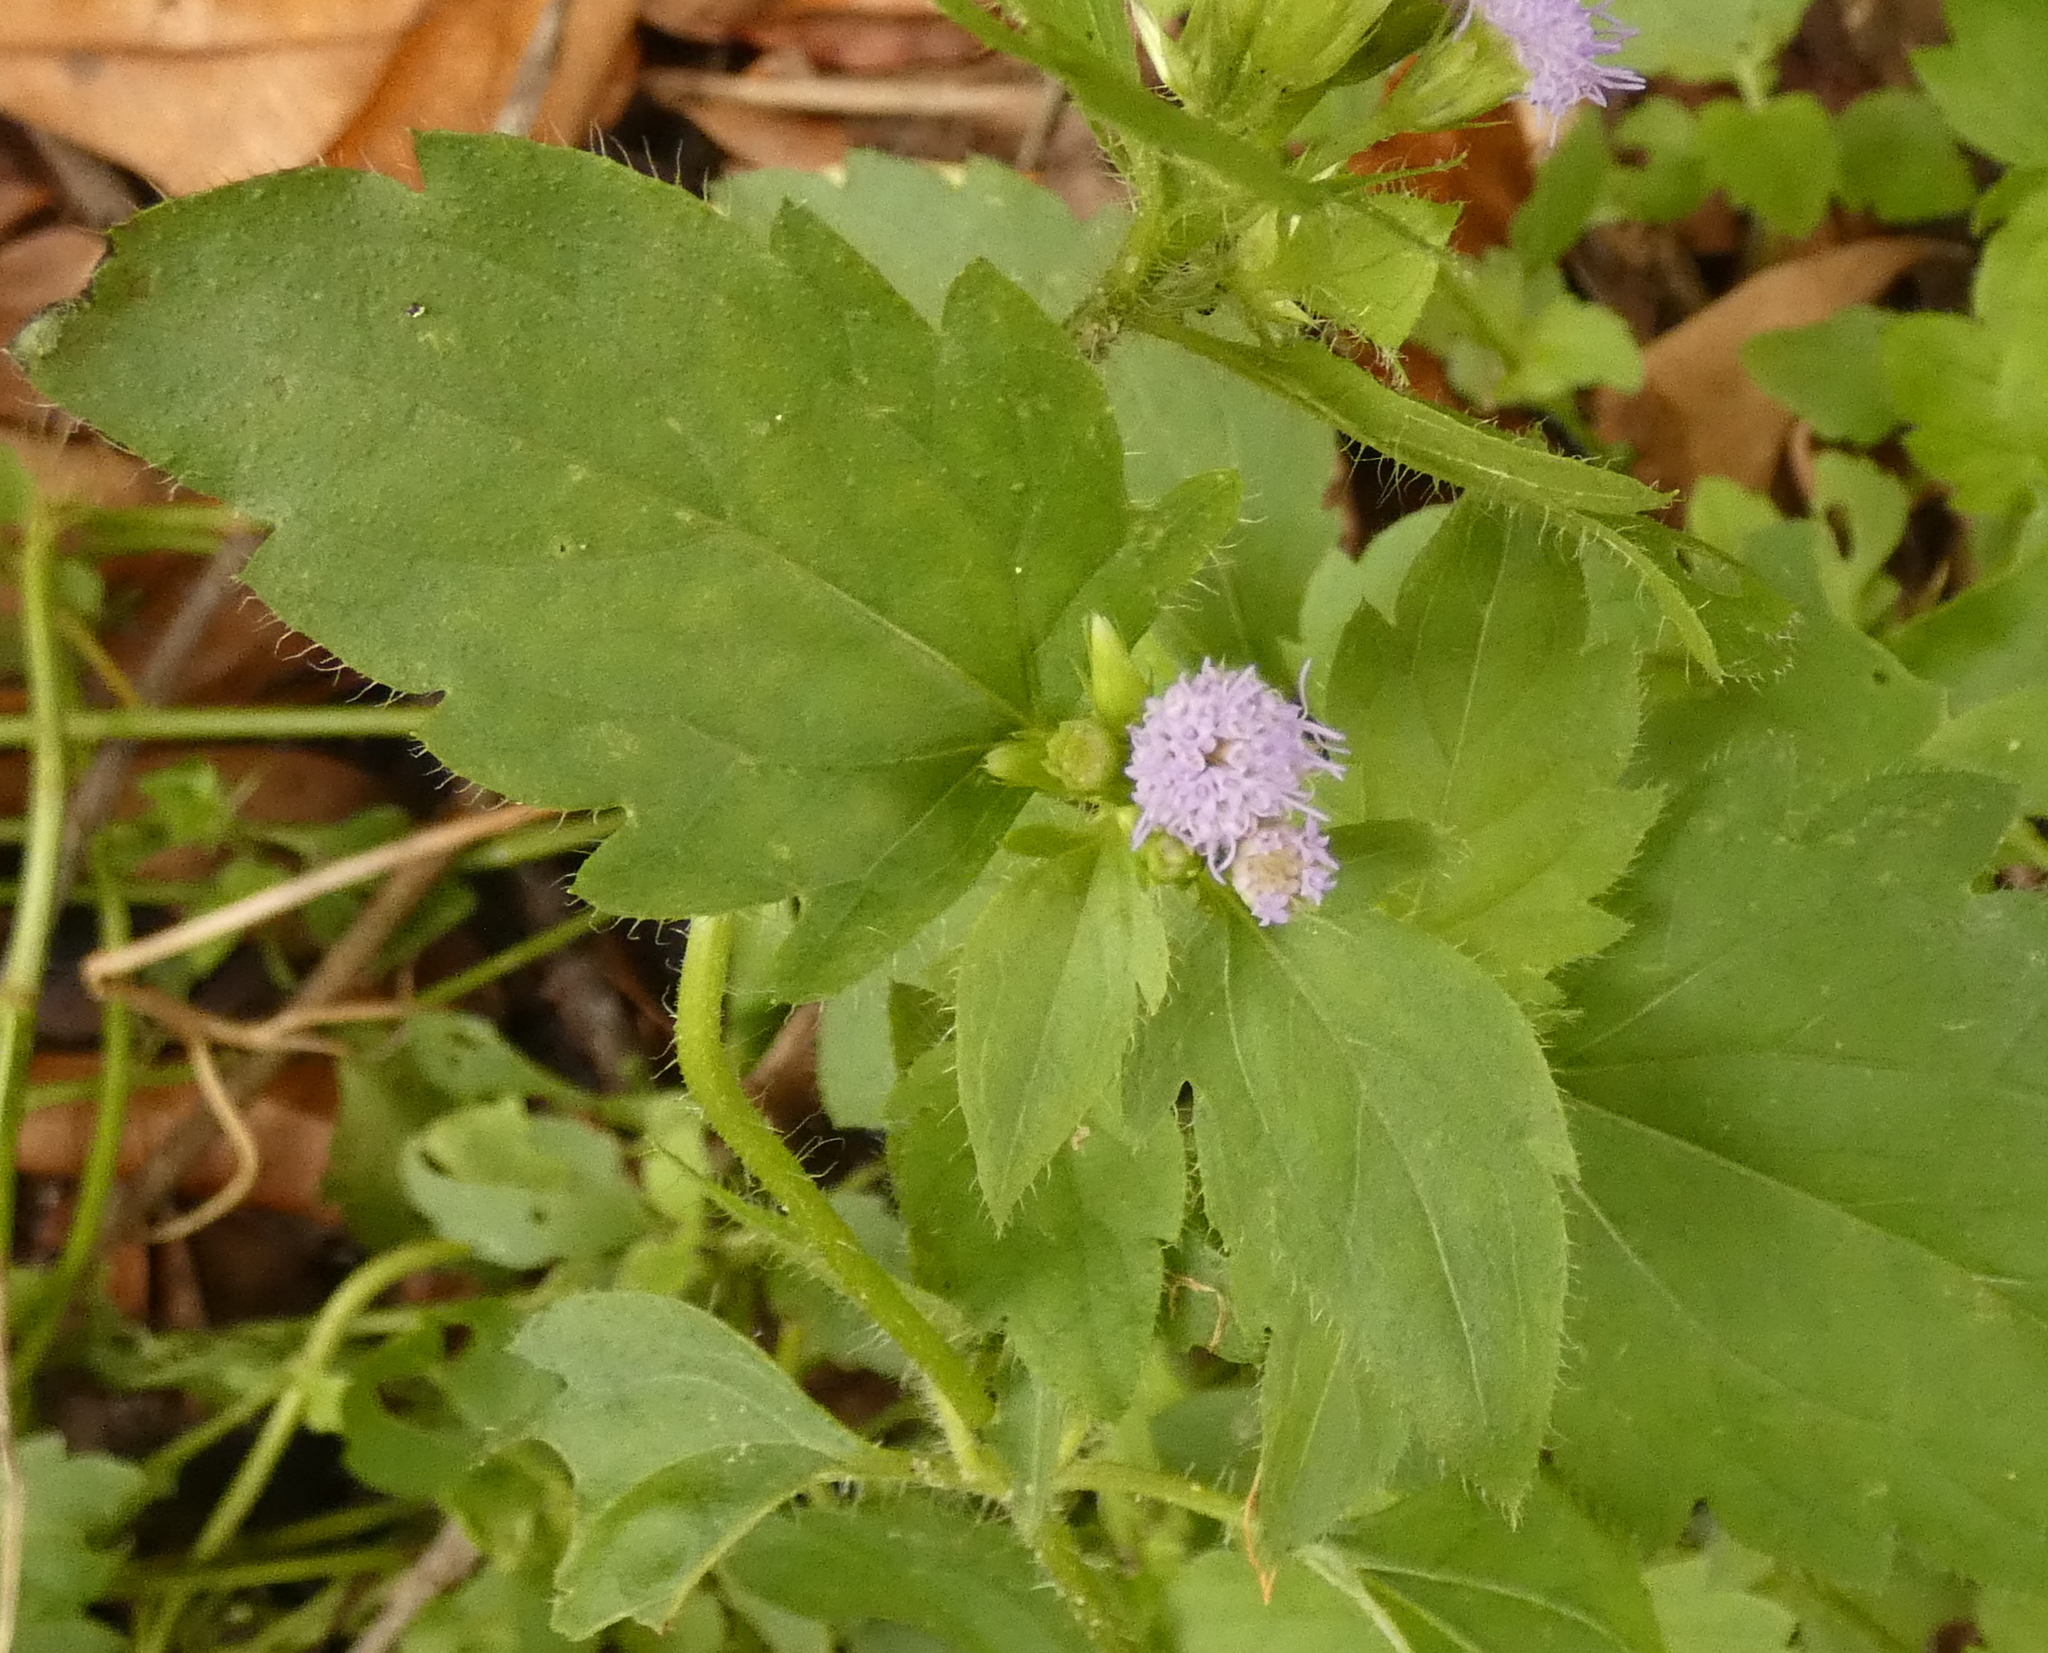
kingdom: Plantae
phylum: Tracheophyta
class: Magnoliopsida
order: Asterales
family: Asteraceae
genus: Praxelis
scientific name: Praxelis clematidea
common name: Praxelis
